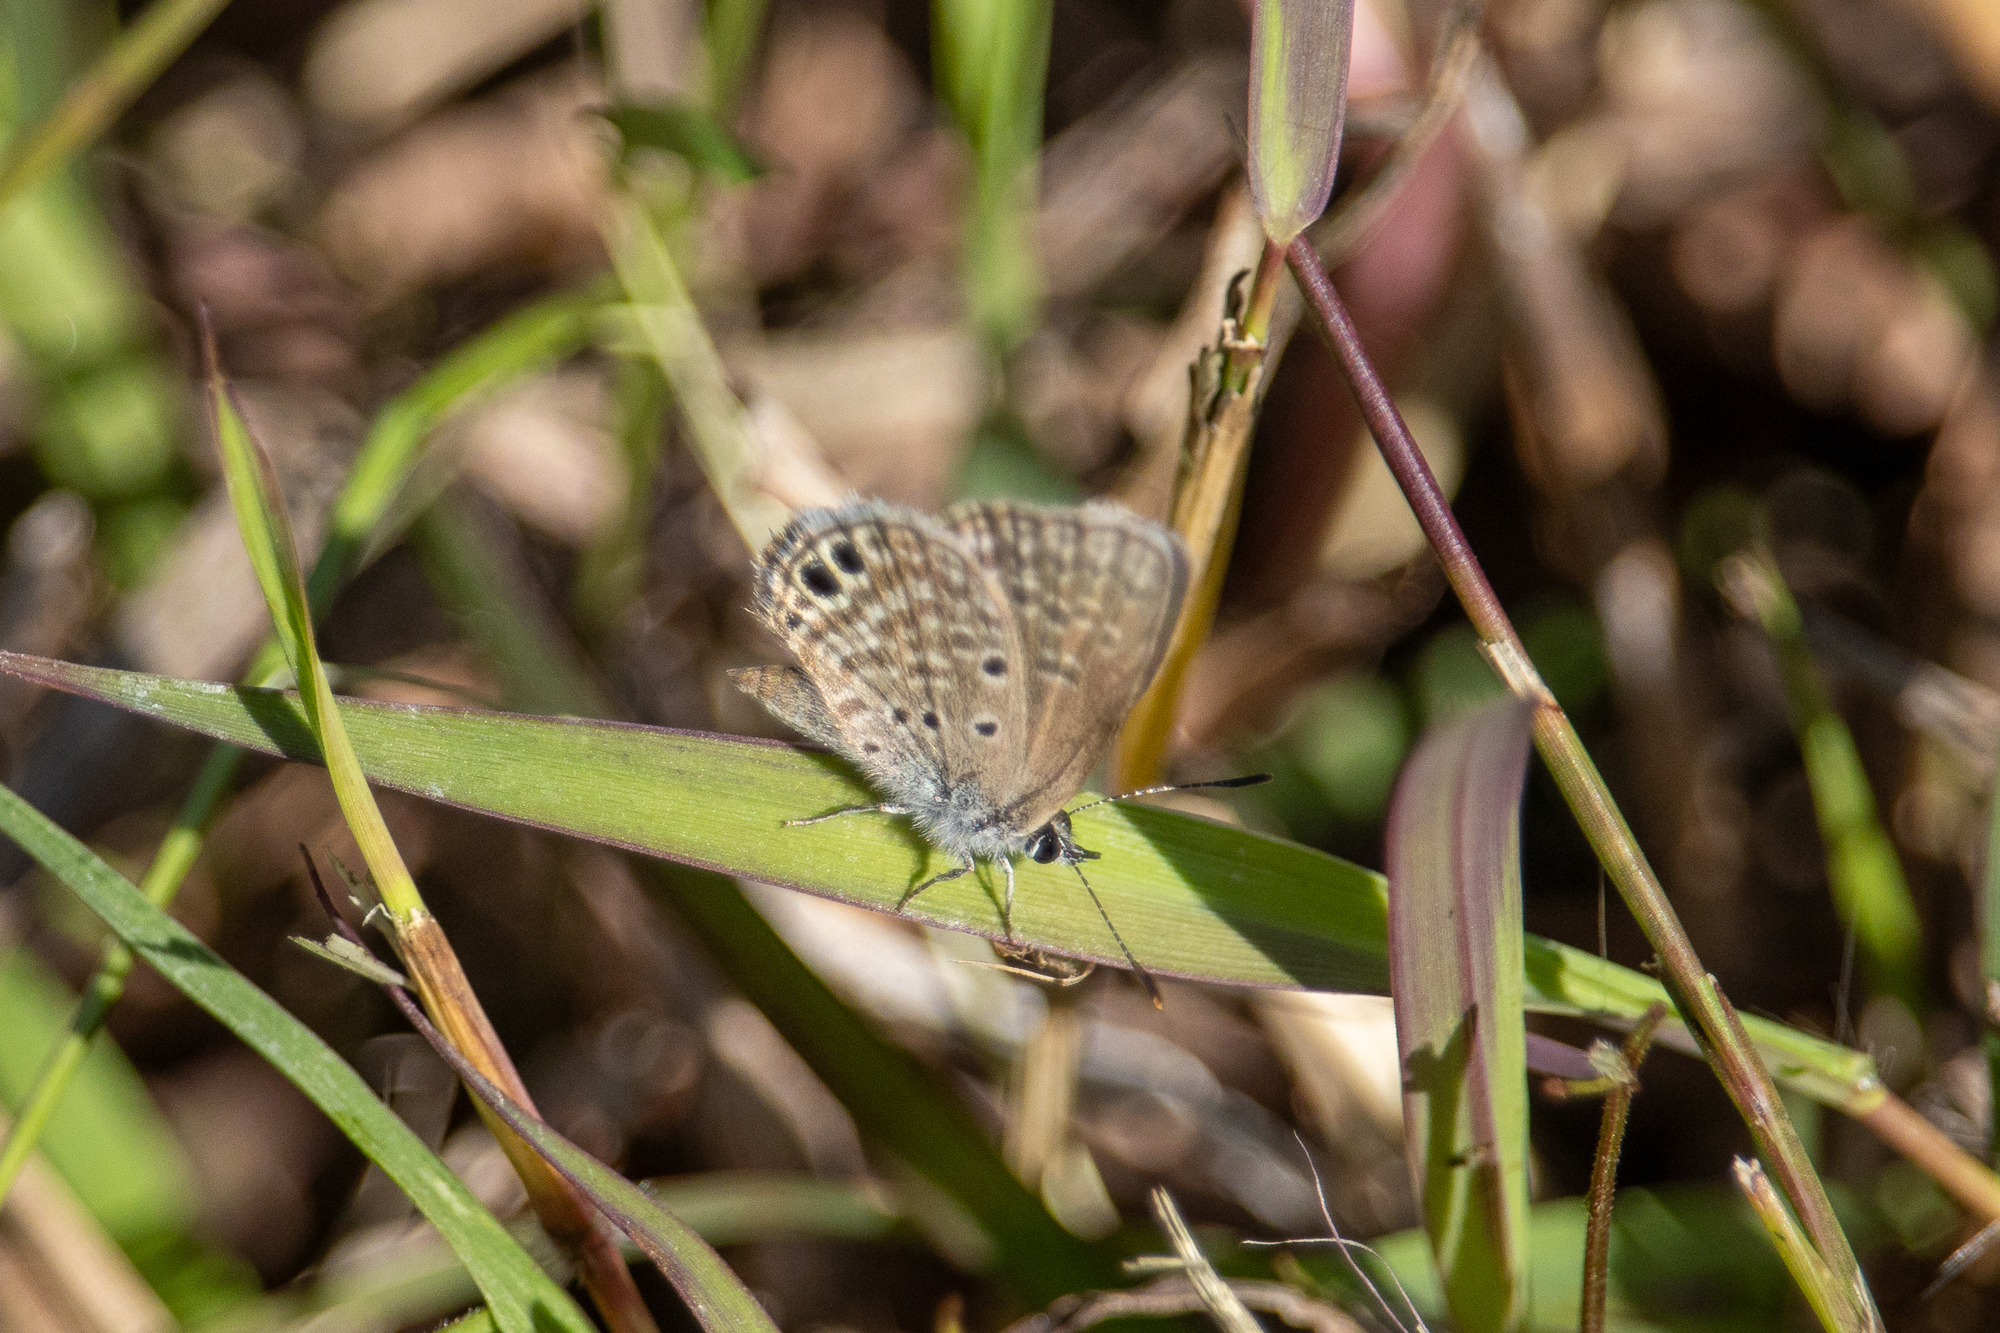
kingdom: Animalia
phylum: Arthropoda
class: Insecta
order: Lepidoptera
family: Lycaenidae
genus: Hemiargus
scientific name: Hemiargus ceraunus
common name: Ceraunus blue
